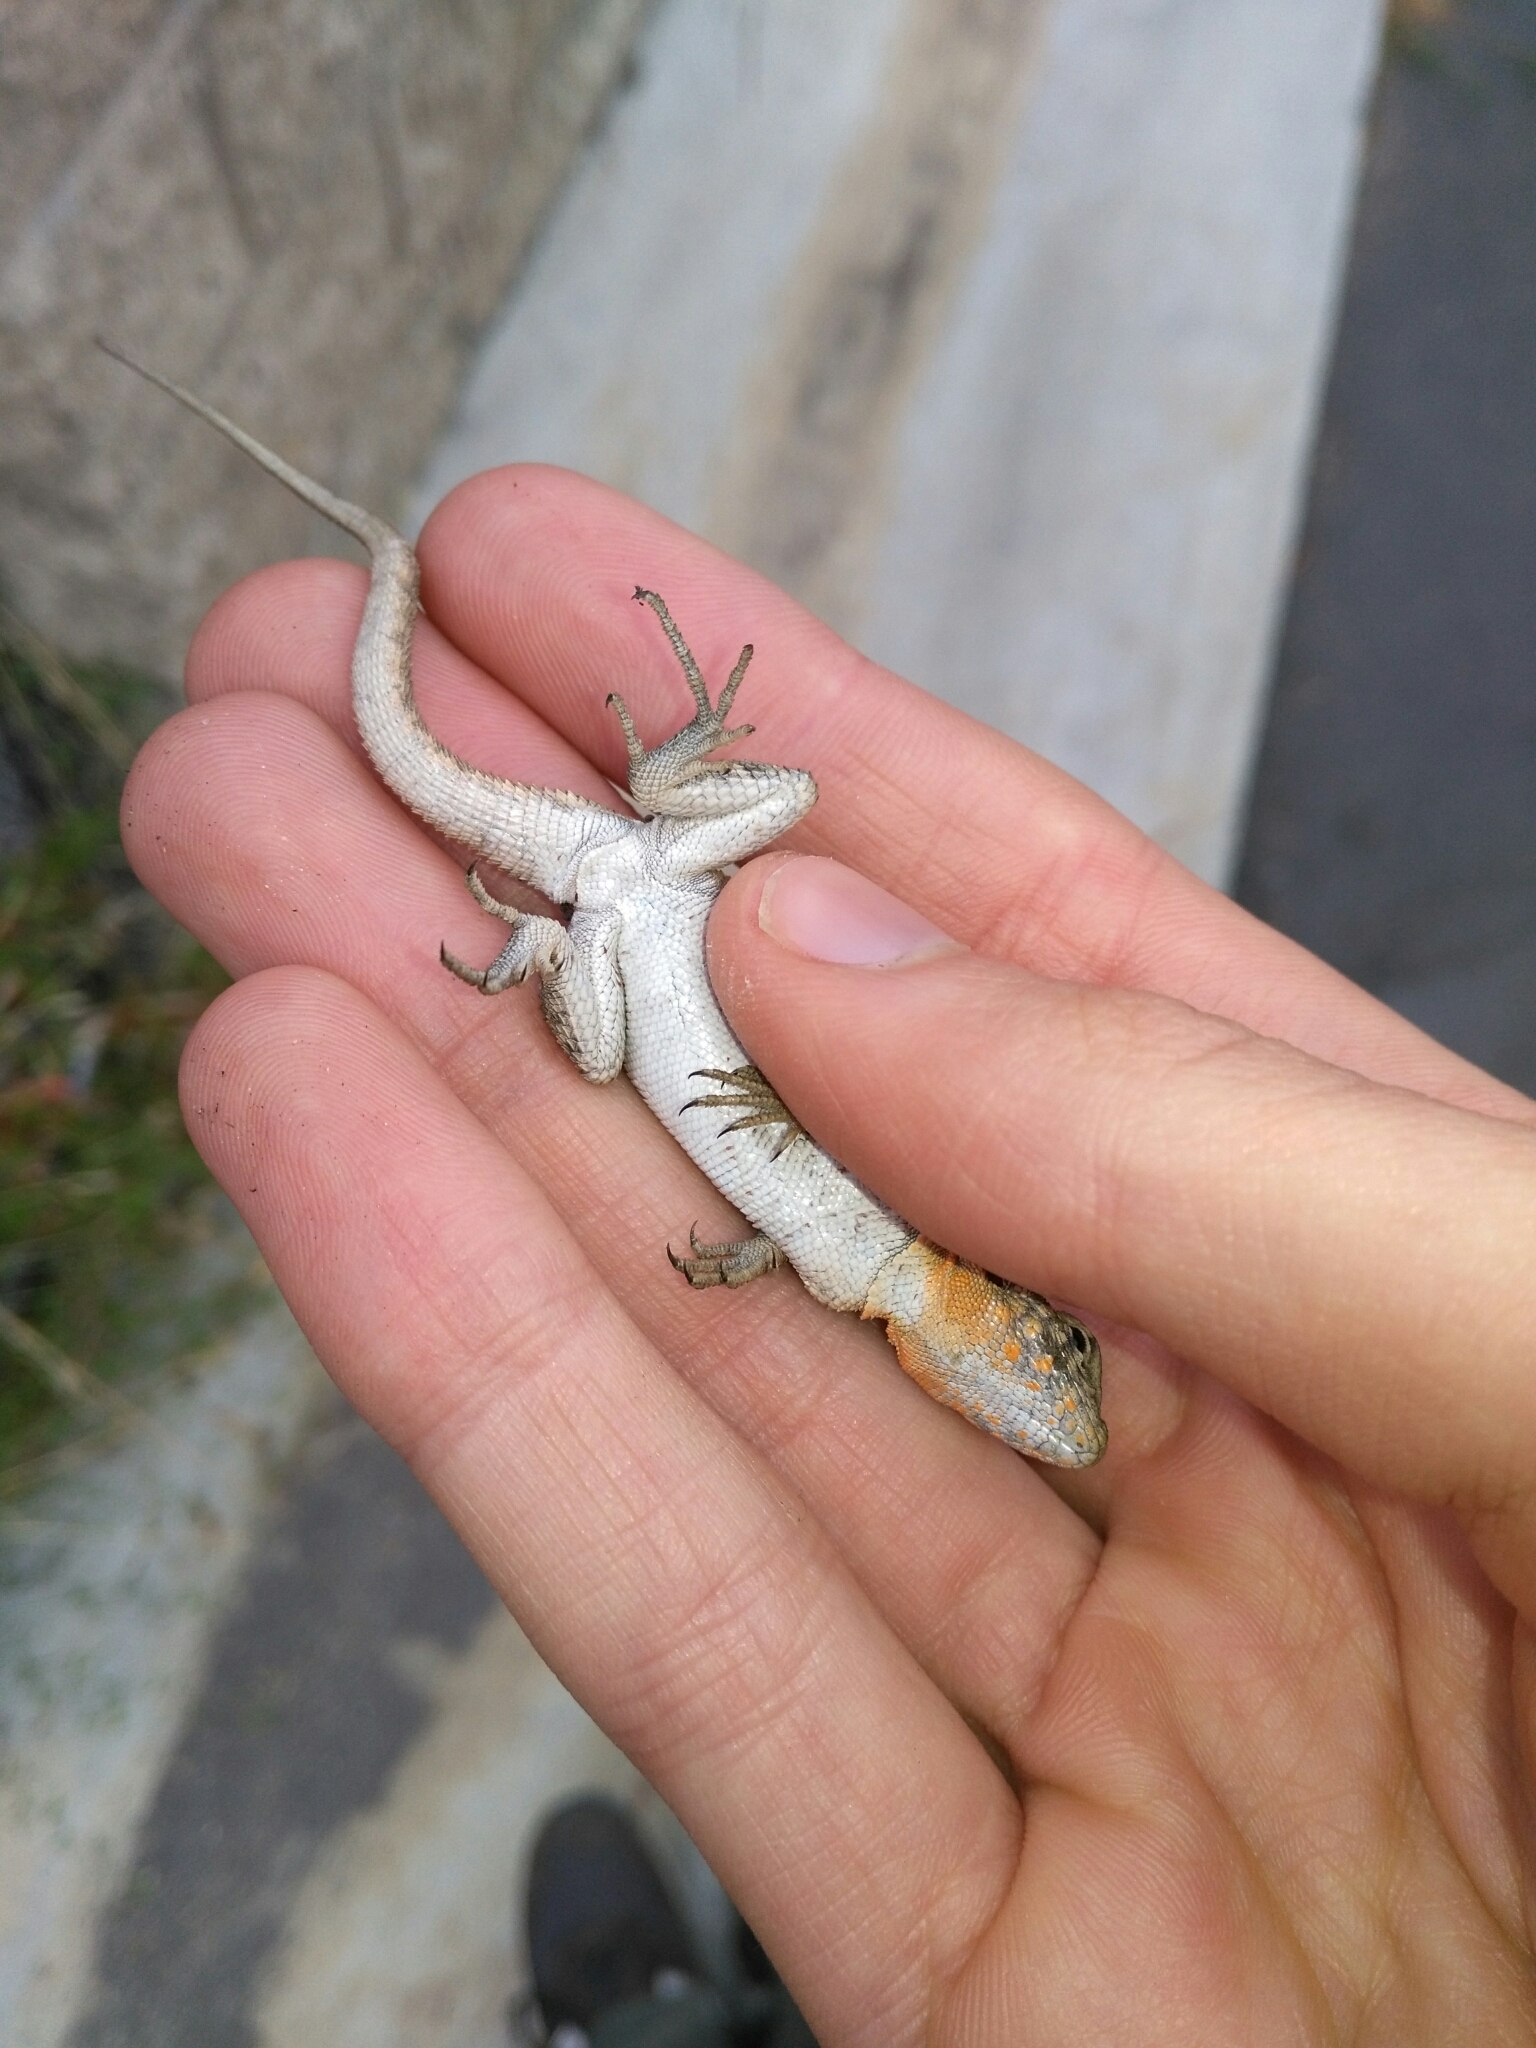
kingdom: Animalia
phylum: Chordata
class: Squamata
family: Phrynosomatidae
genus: Uta
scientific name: Uta stansburiana
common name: Side-blotched lizard
